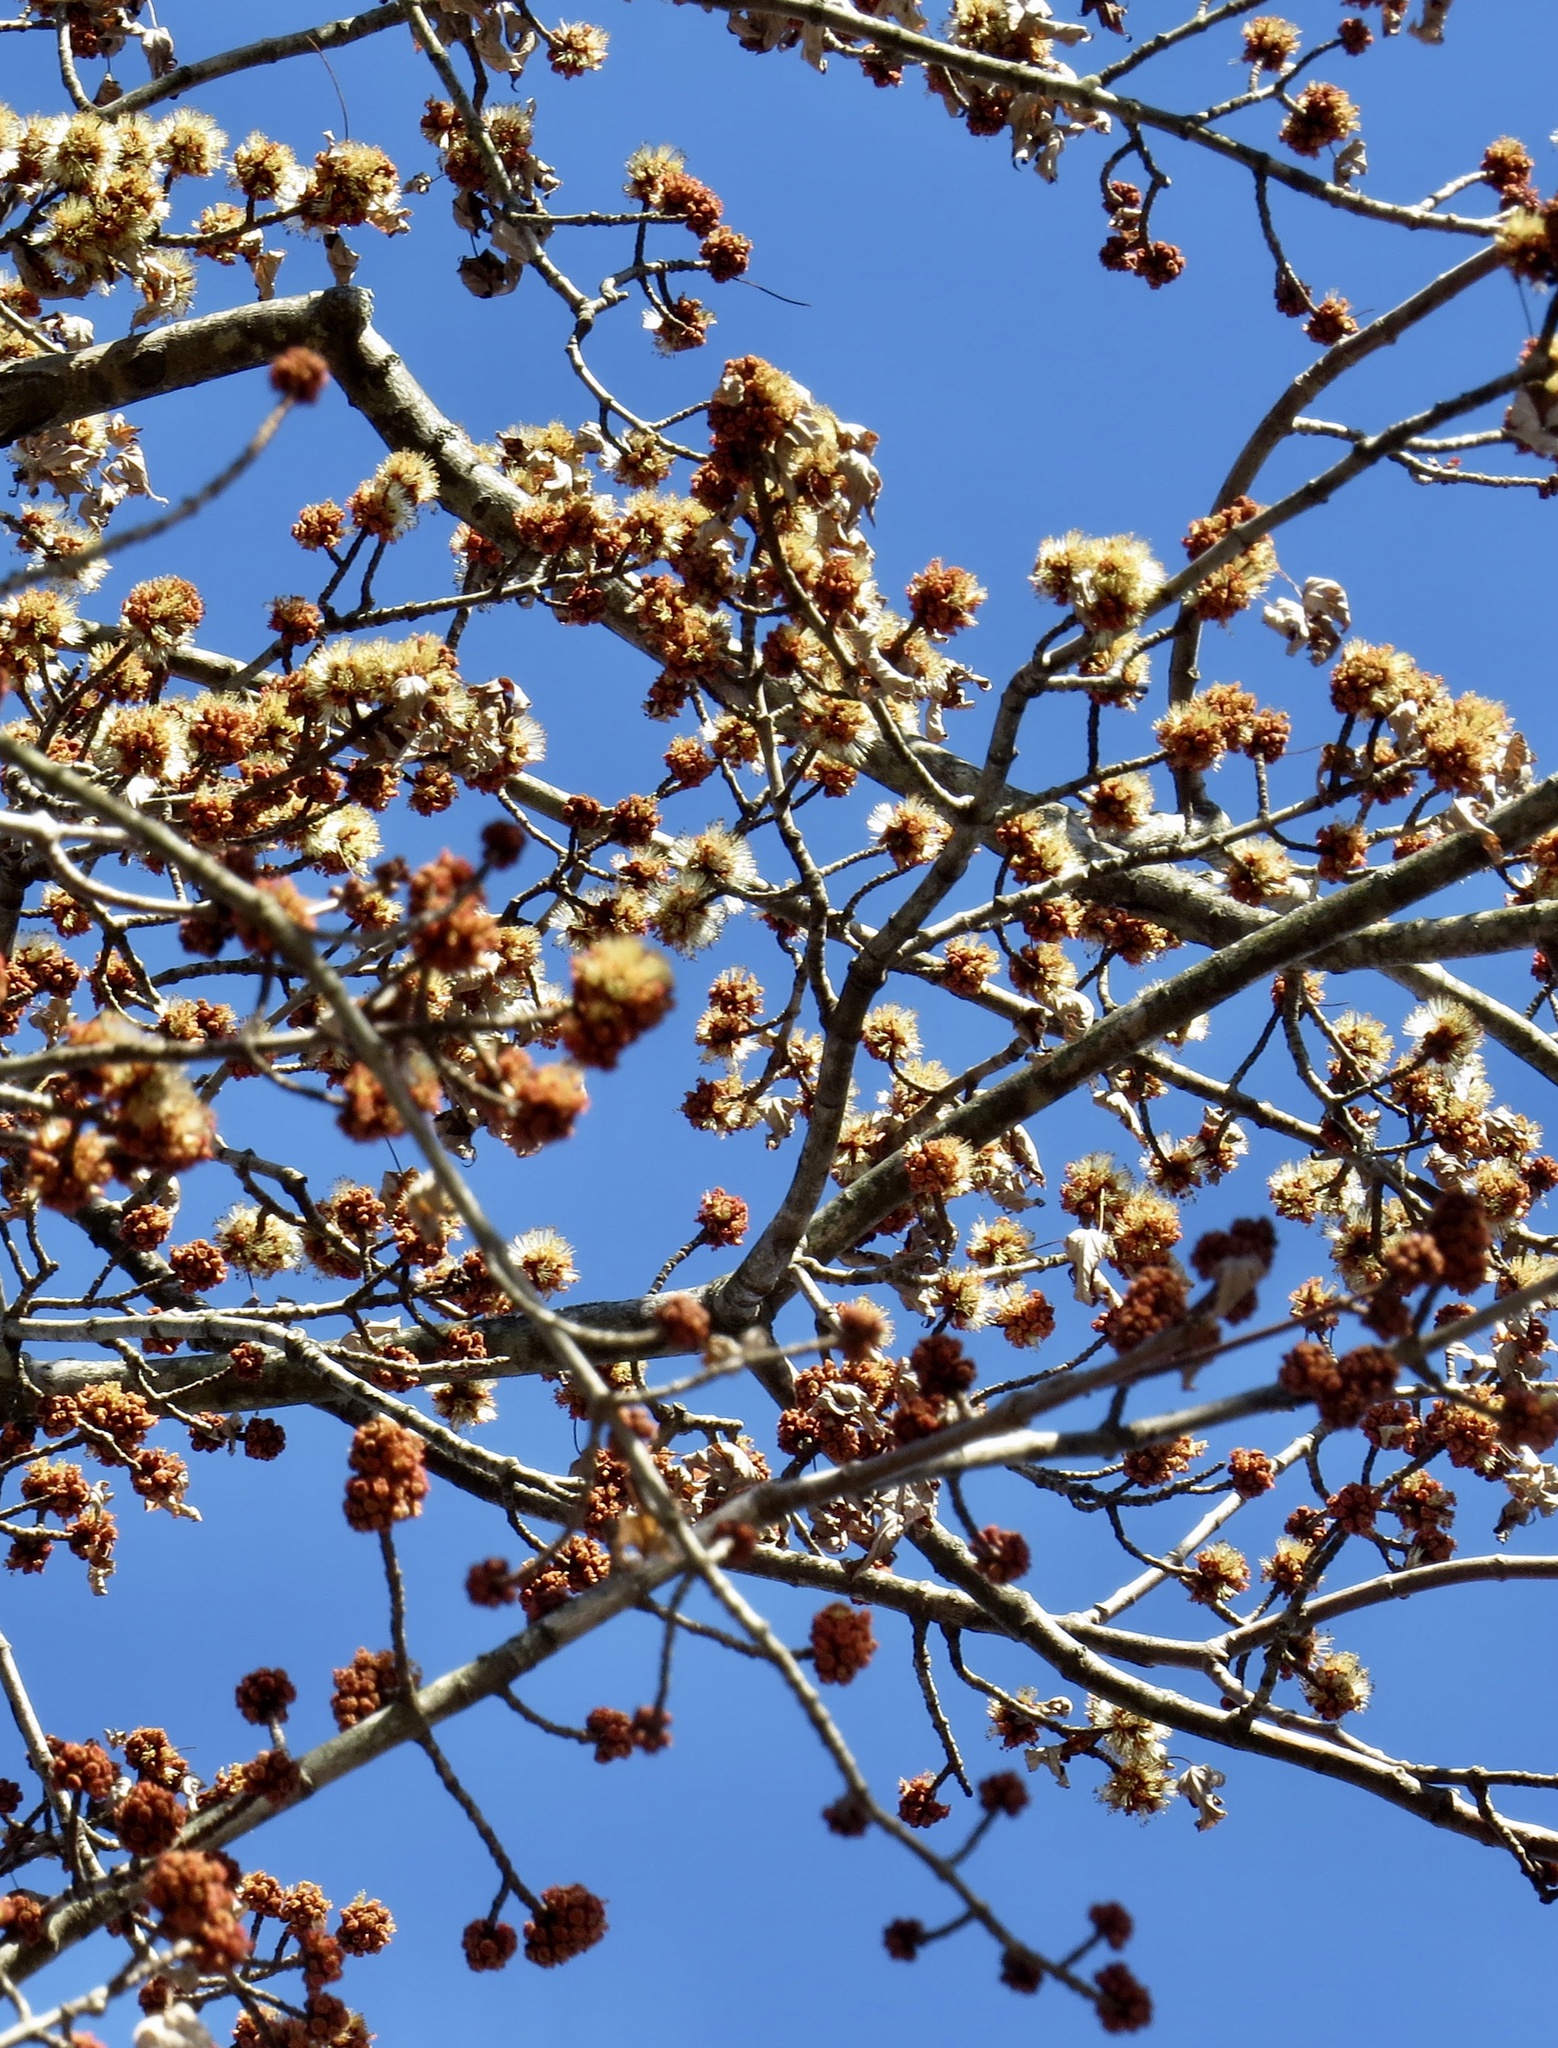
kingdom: Plantae
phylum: Tracheophyta
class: Magnoliopsida
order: Sapindales
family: Sapindaceae
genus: Acer
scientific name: Acer saccharinum
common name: Silver maple
